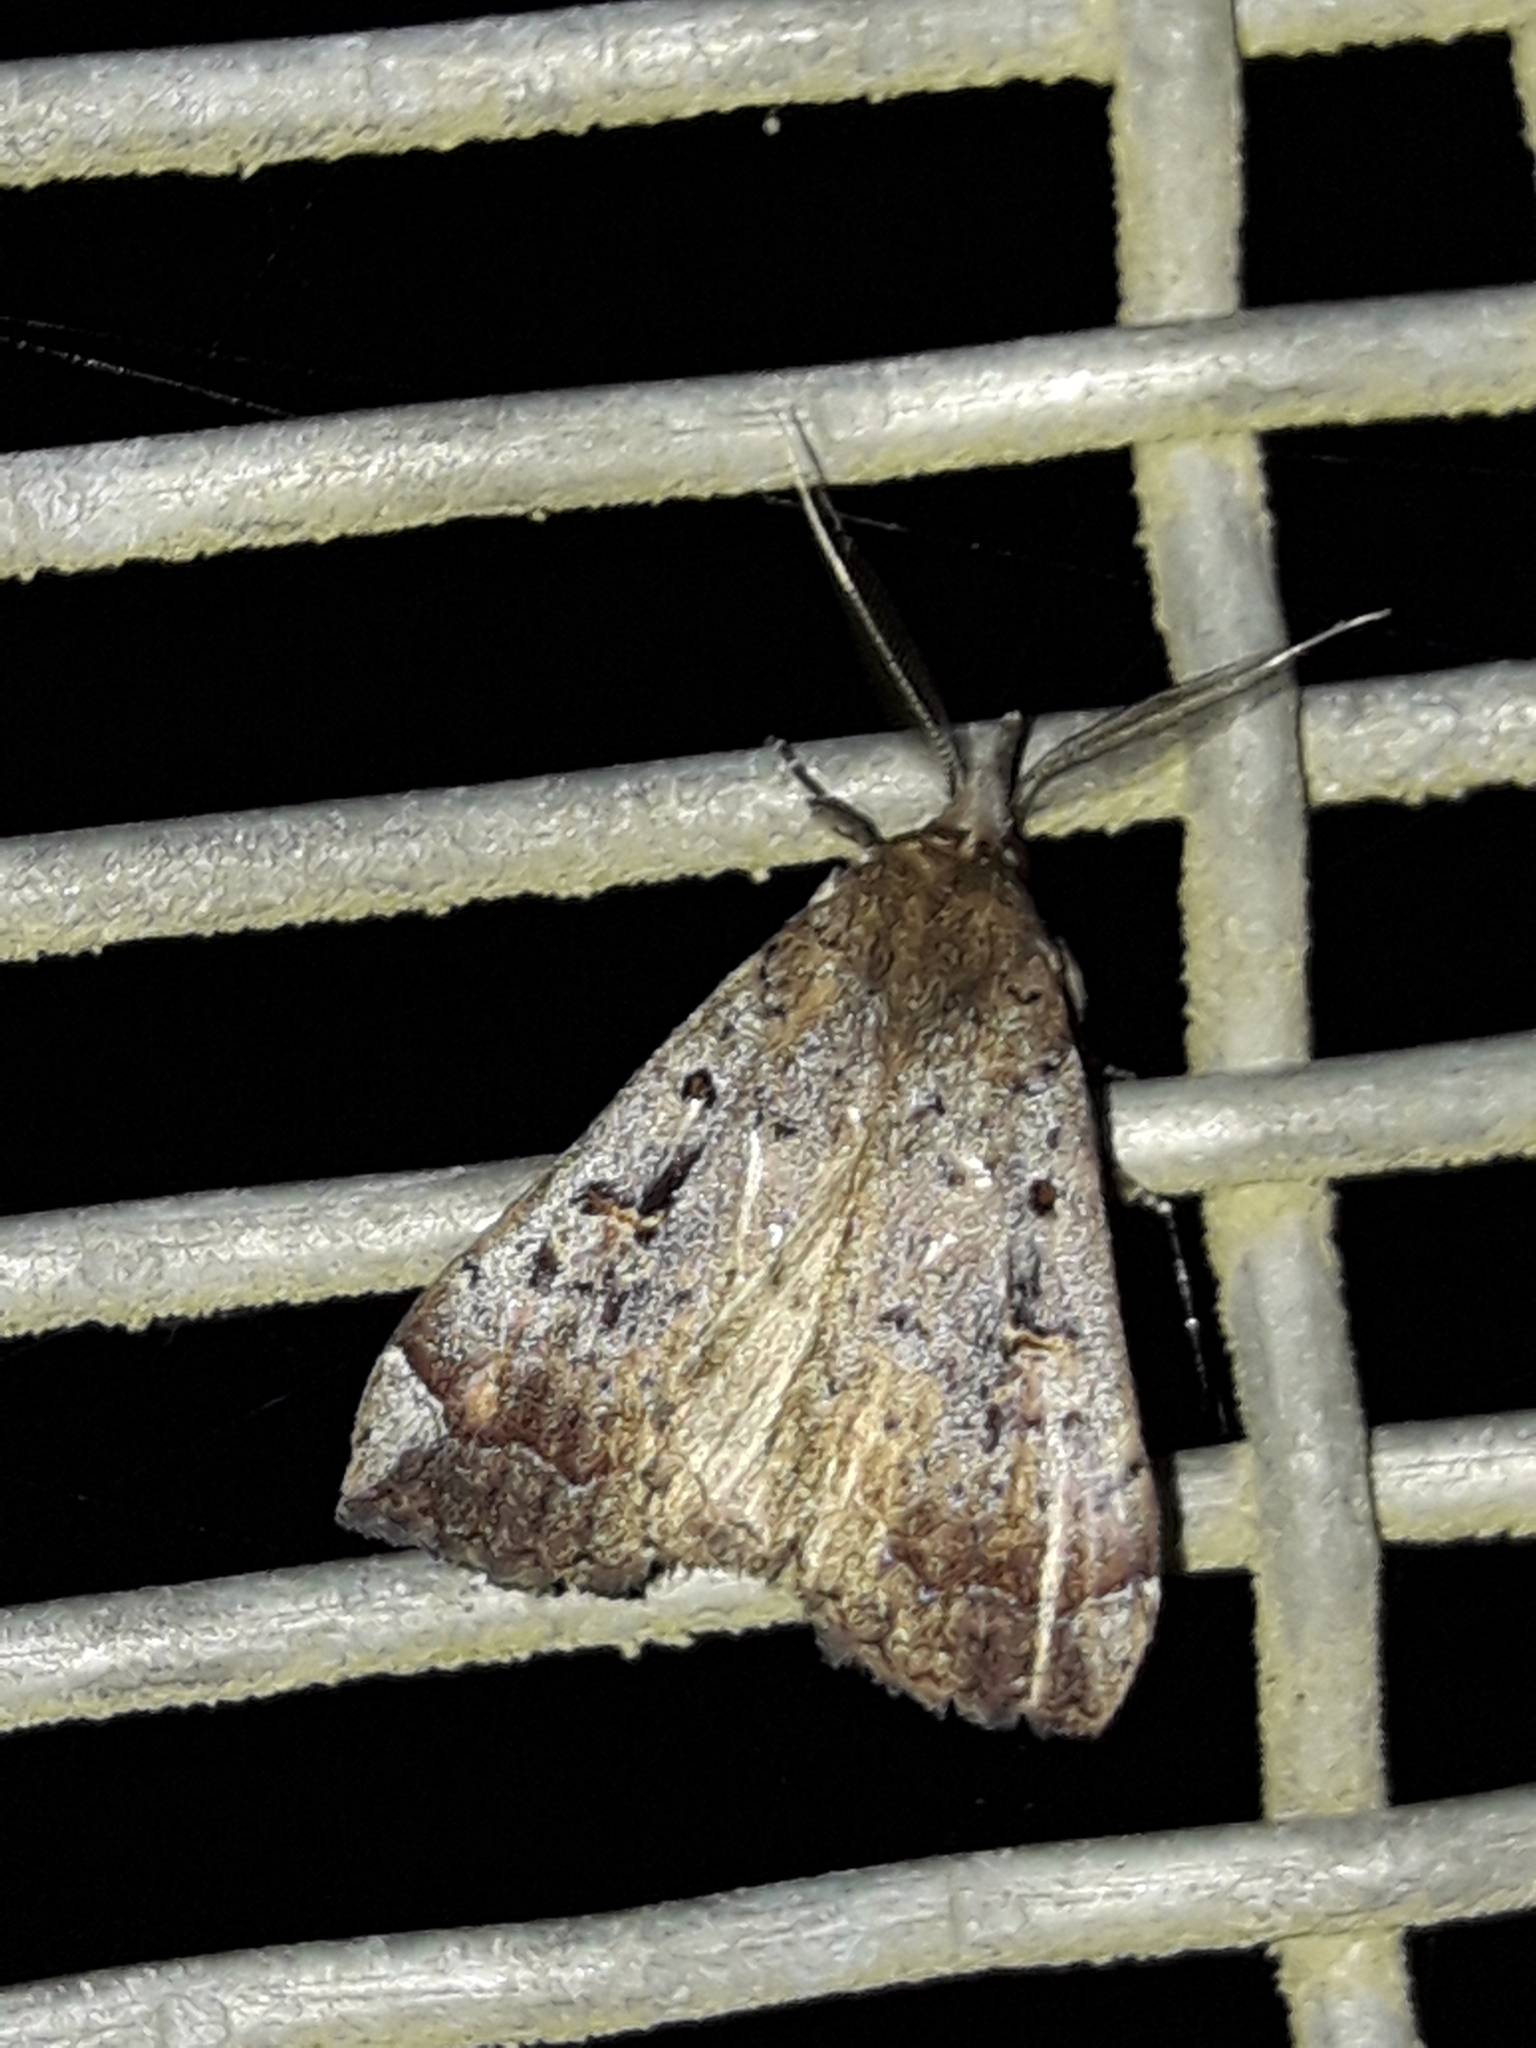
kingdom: Animalia
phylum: Arthropoda
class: Insecta
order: Lepidoptera
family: Erebidae
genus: Rhapsa
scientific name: Rhapsa scotosialis
